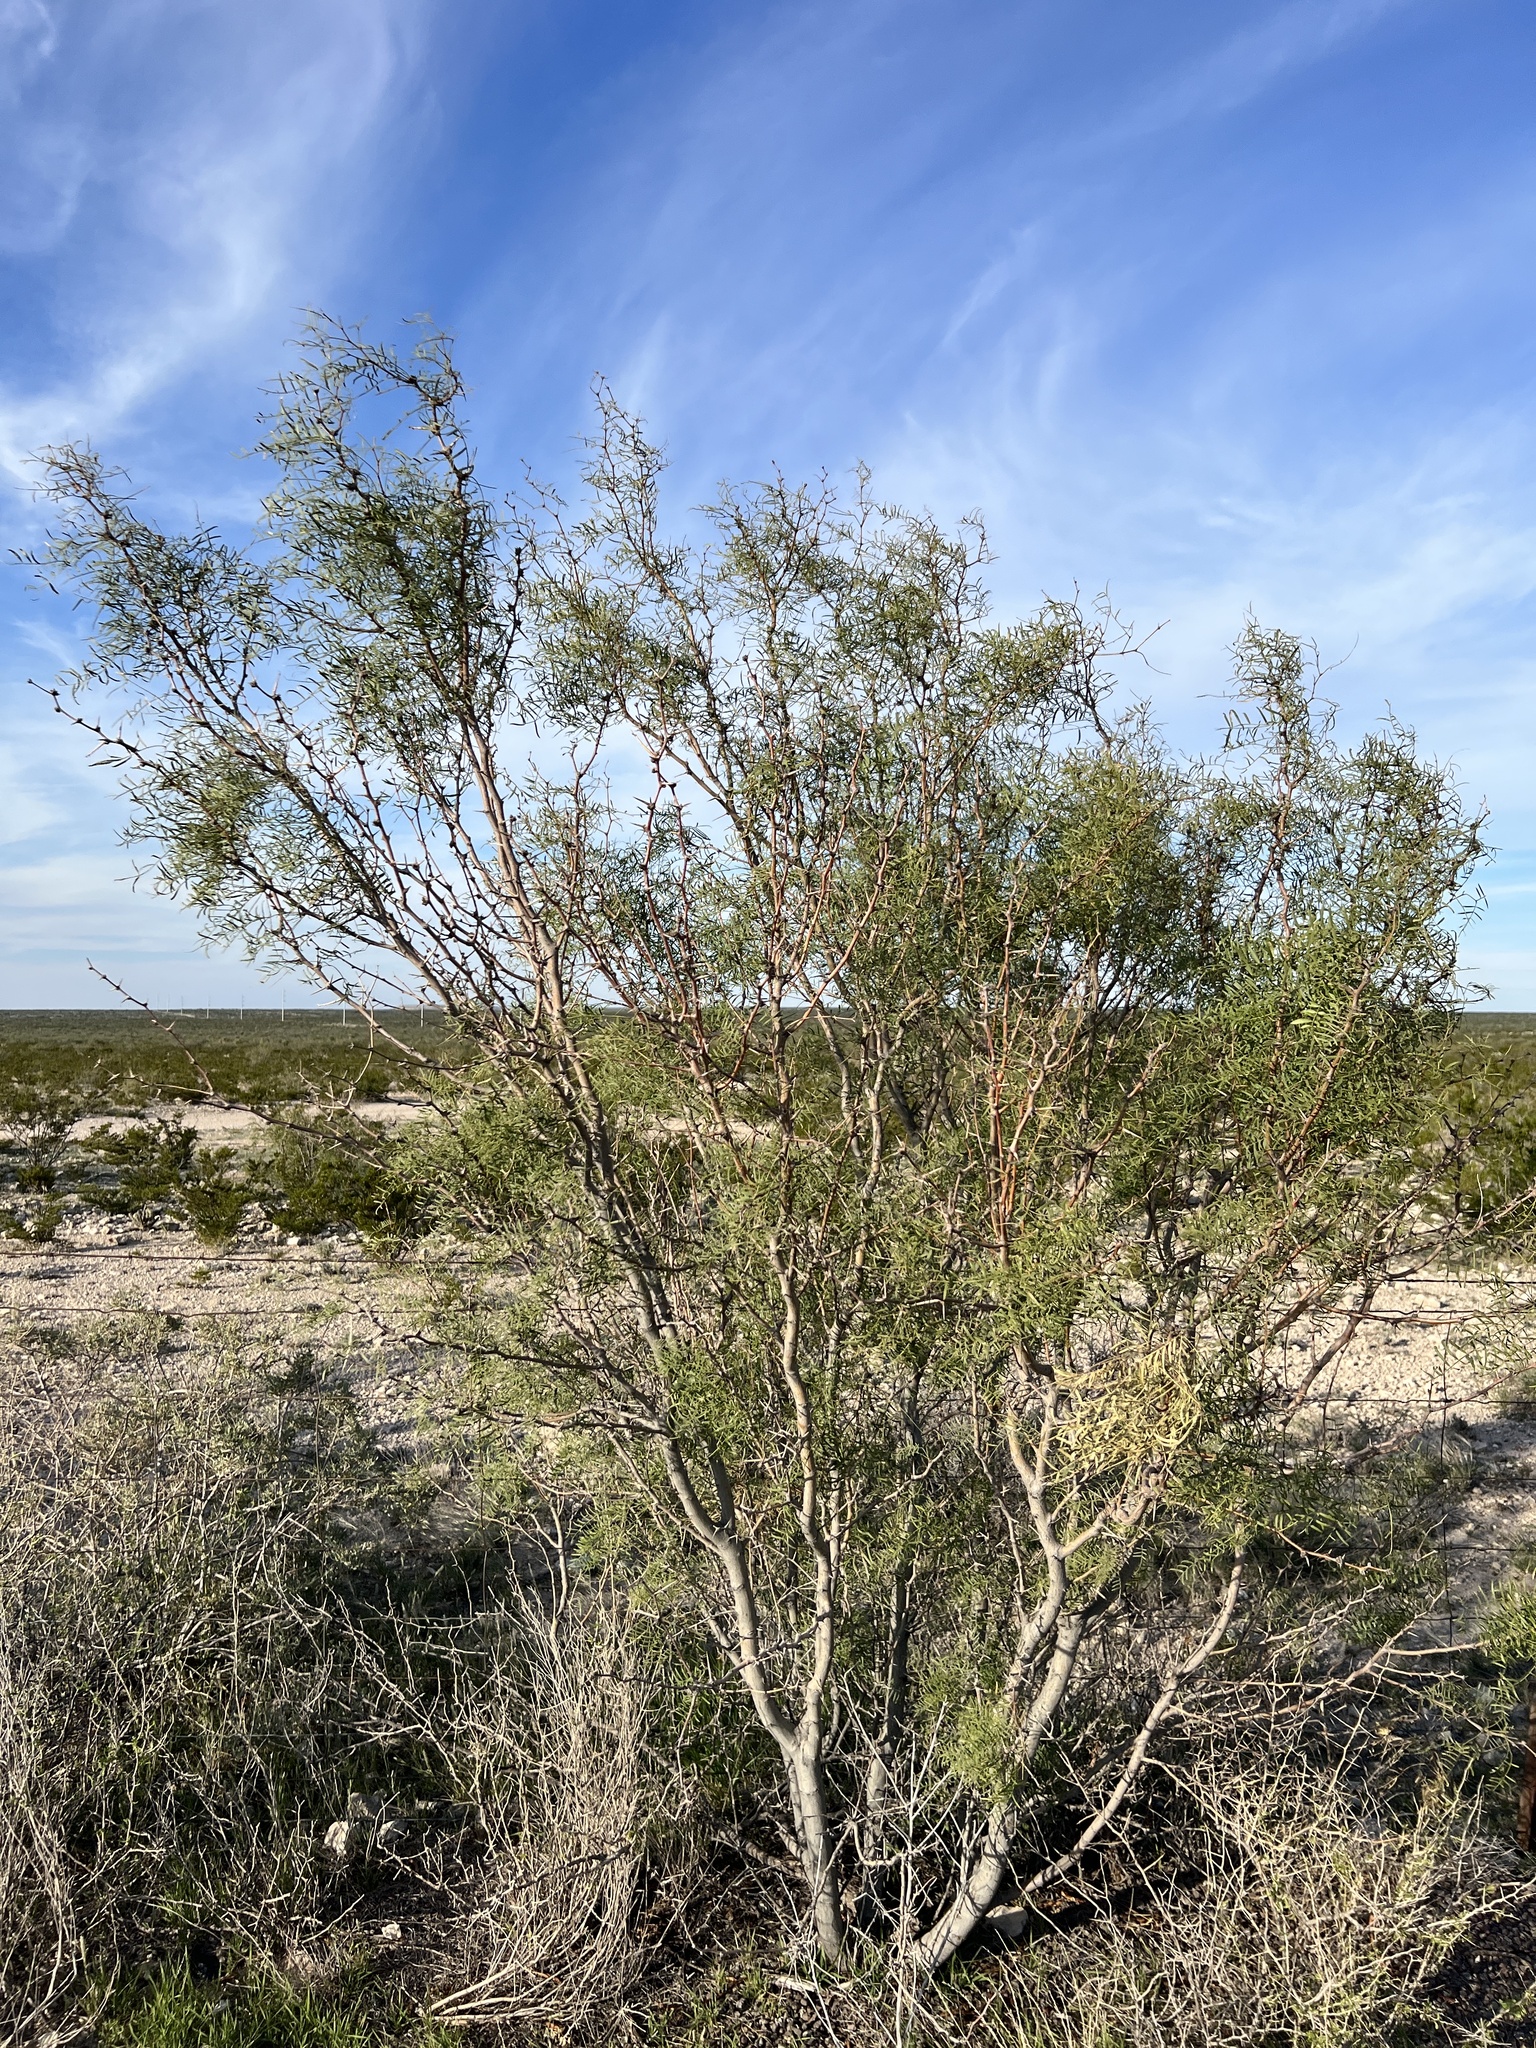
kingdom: Plantae
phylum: Tracheophyta
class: Magnoliopsida
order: Fabales
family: Fabaceae
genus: Prosopis
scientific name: Prosopis pubescens
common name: Screw-bean
